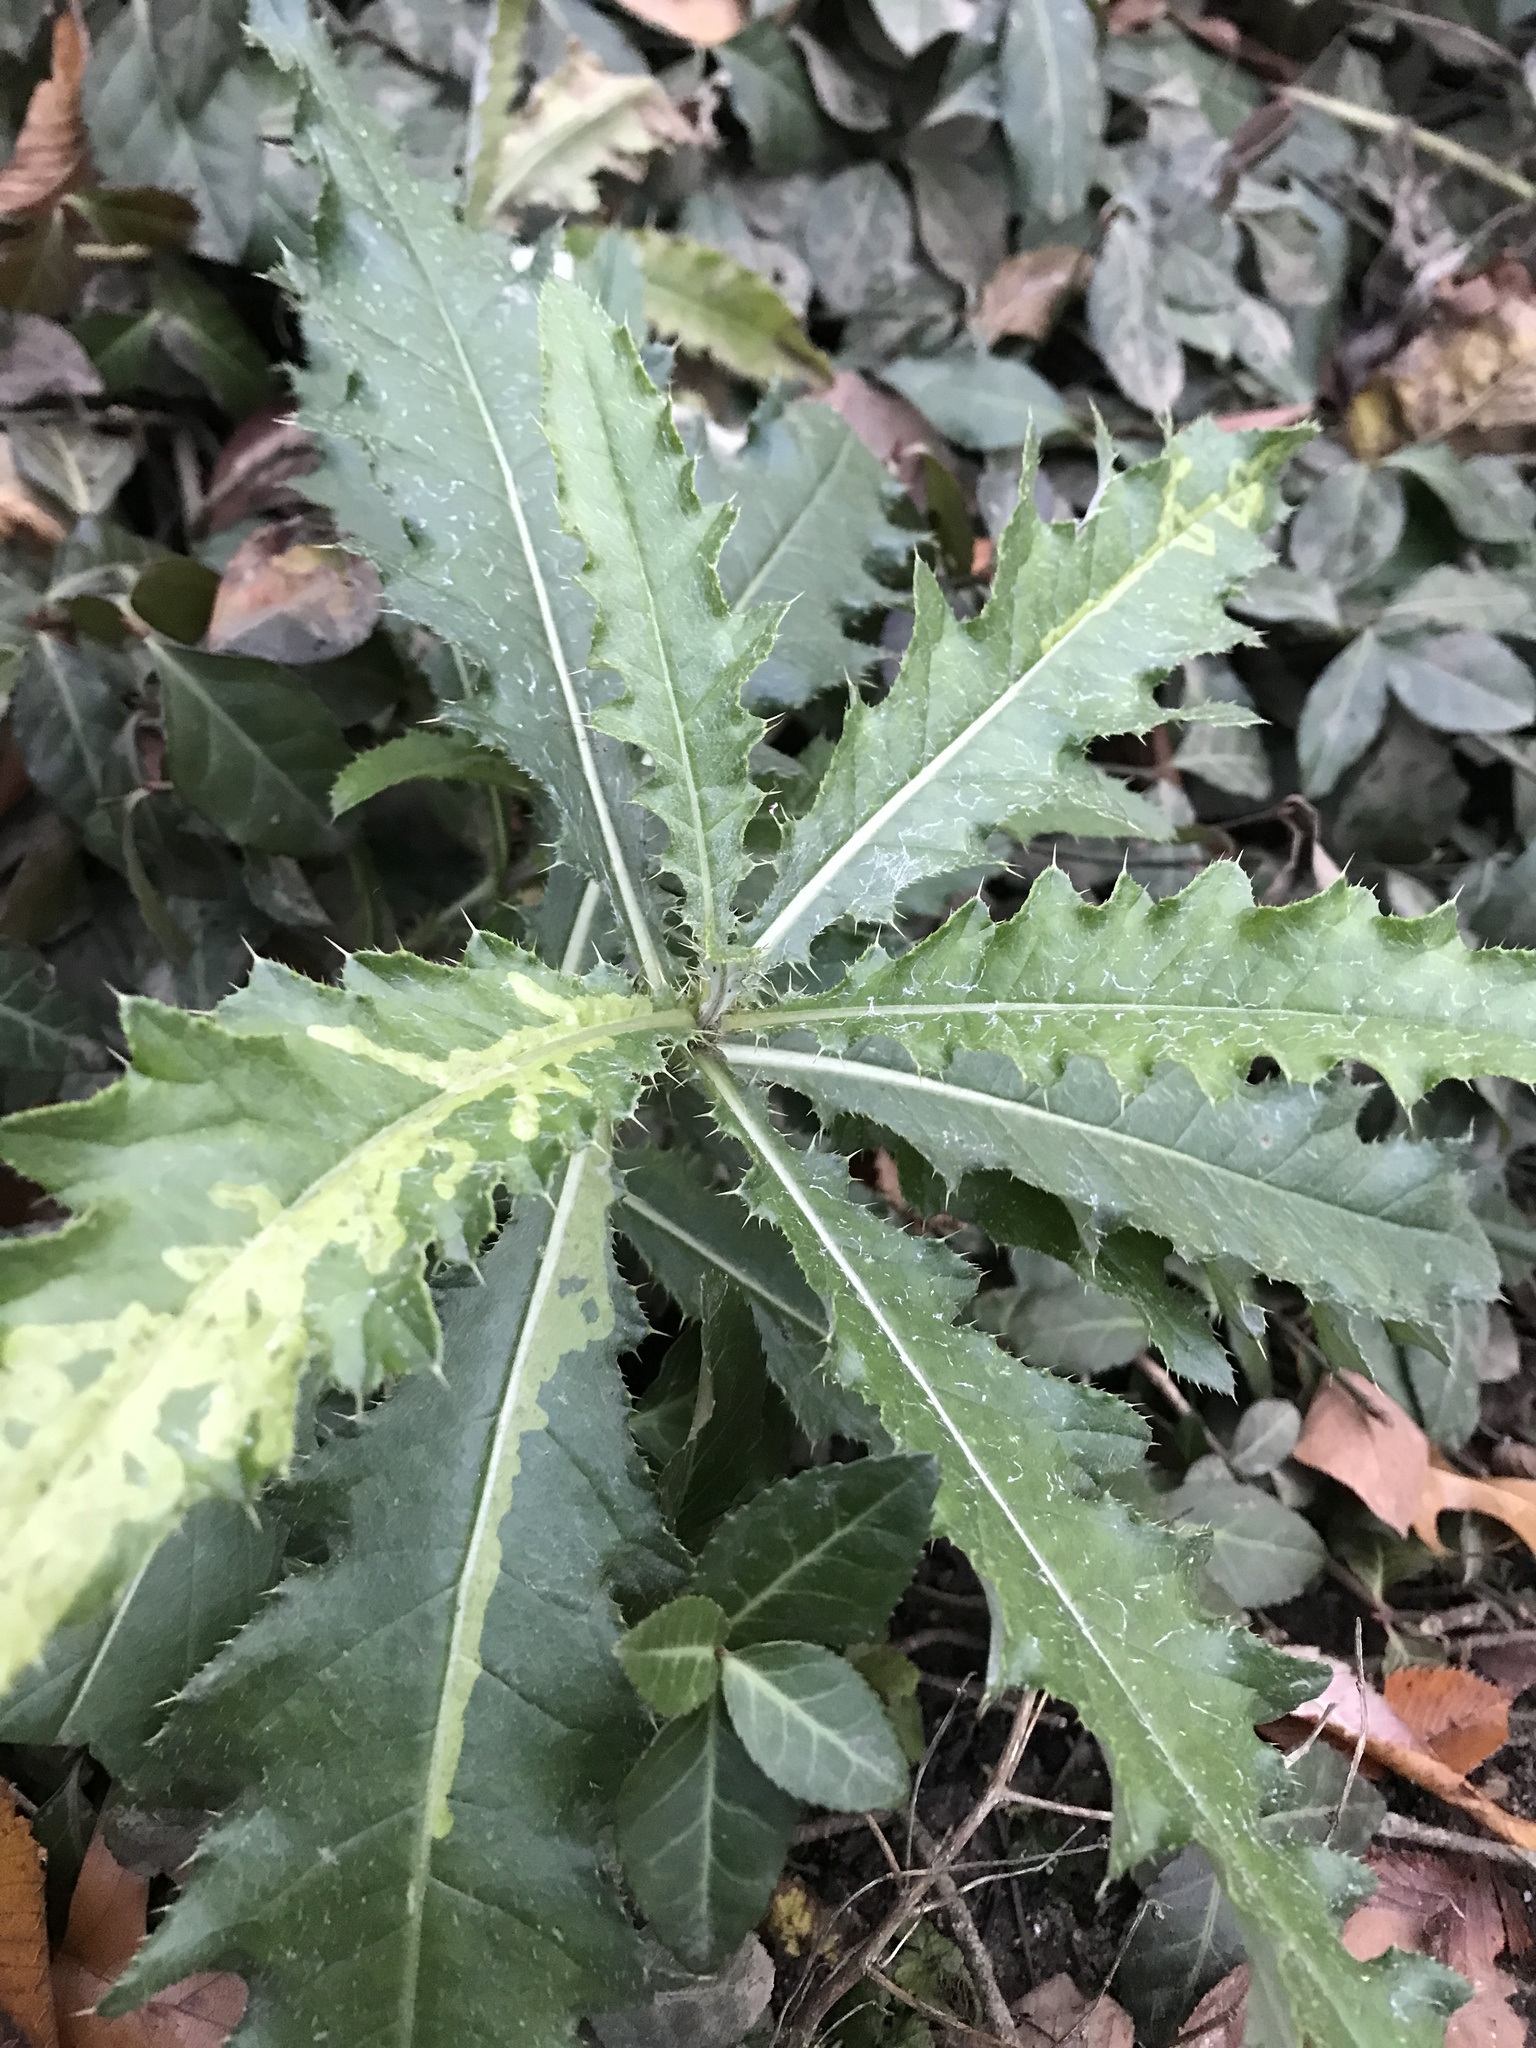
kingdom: Plantae
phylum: Tracheophyta
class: Magnoliopsida
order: Asterales
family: Asteraceae
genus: Cirsium
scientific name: Cirsium arvense
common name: Creeping thistle
